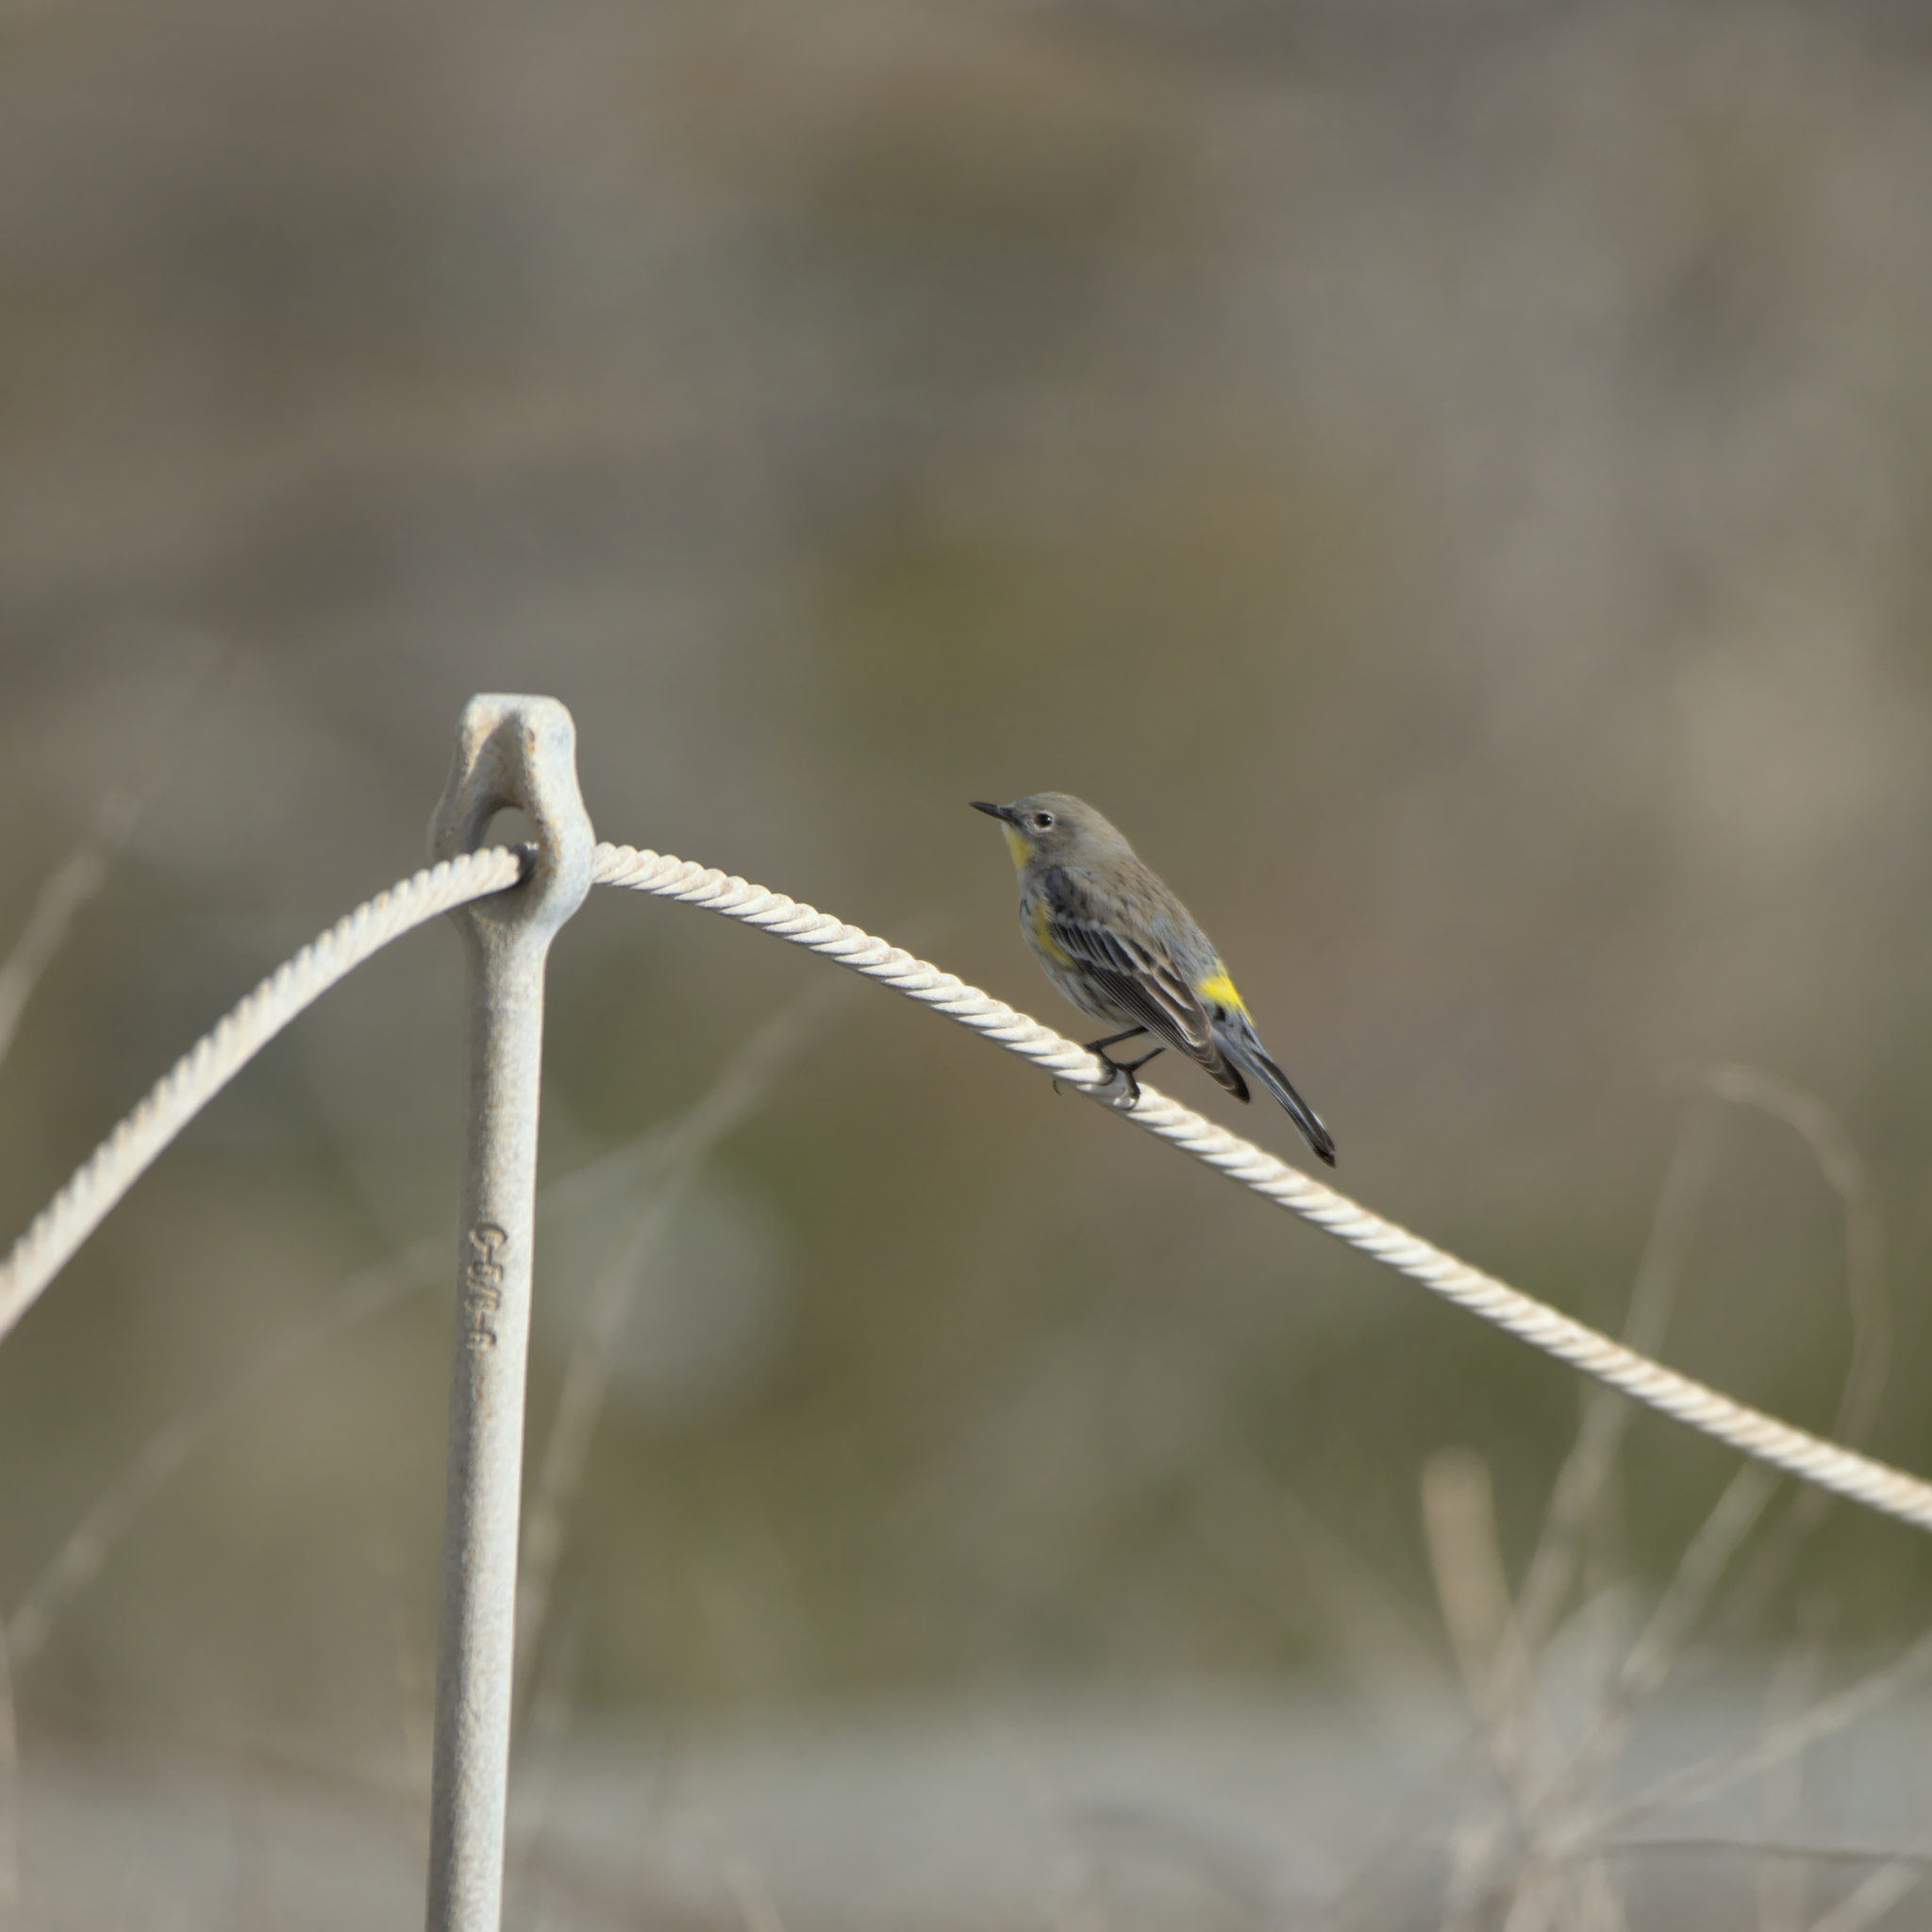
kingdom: Animalia
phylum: Chordata
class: Aves
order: Passeriformes
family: Parulidae
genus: Setophaga
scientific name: Setophaga coronata
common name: Myrtle warbler
